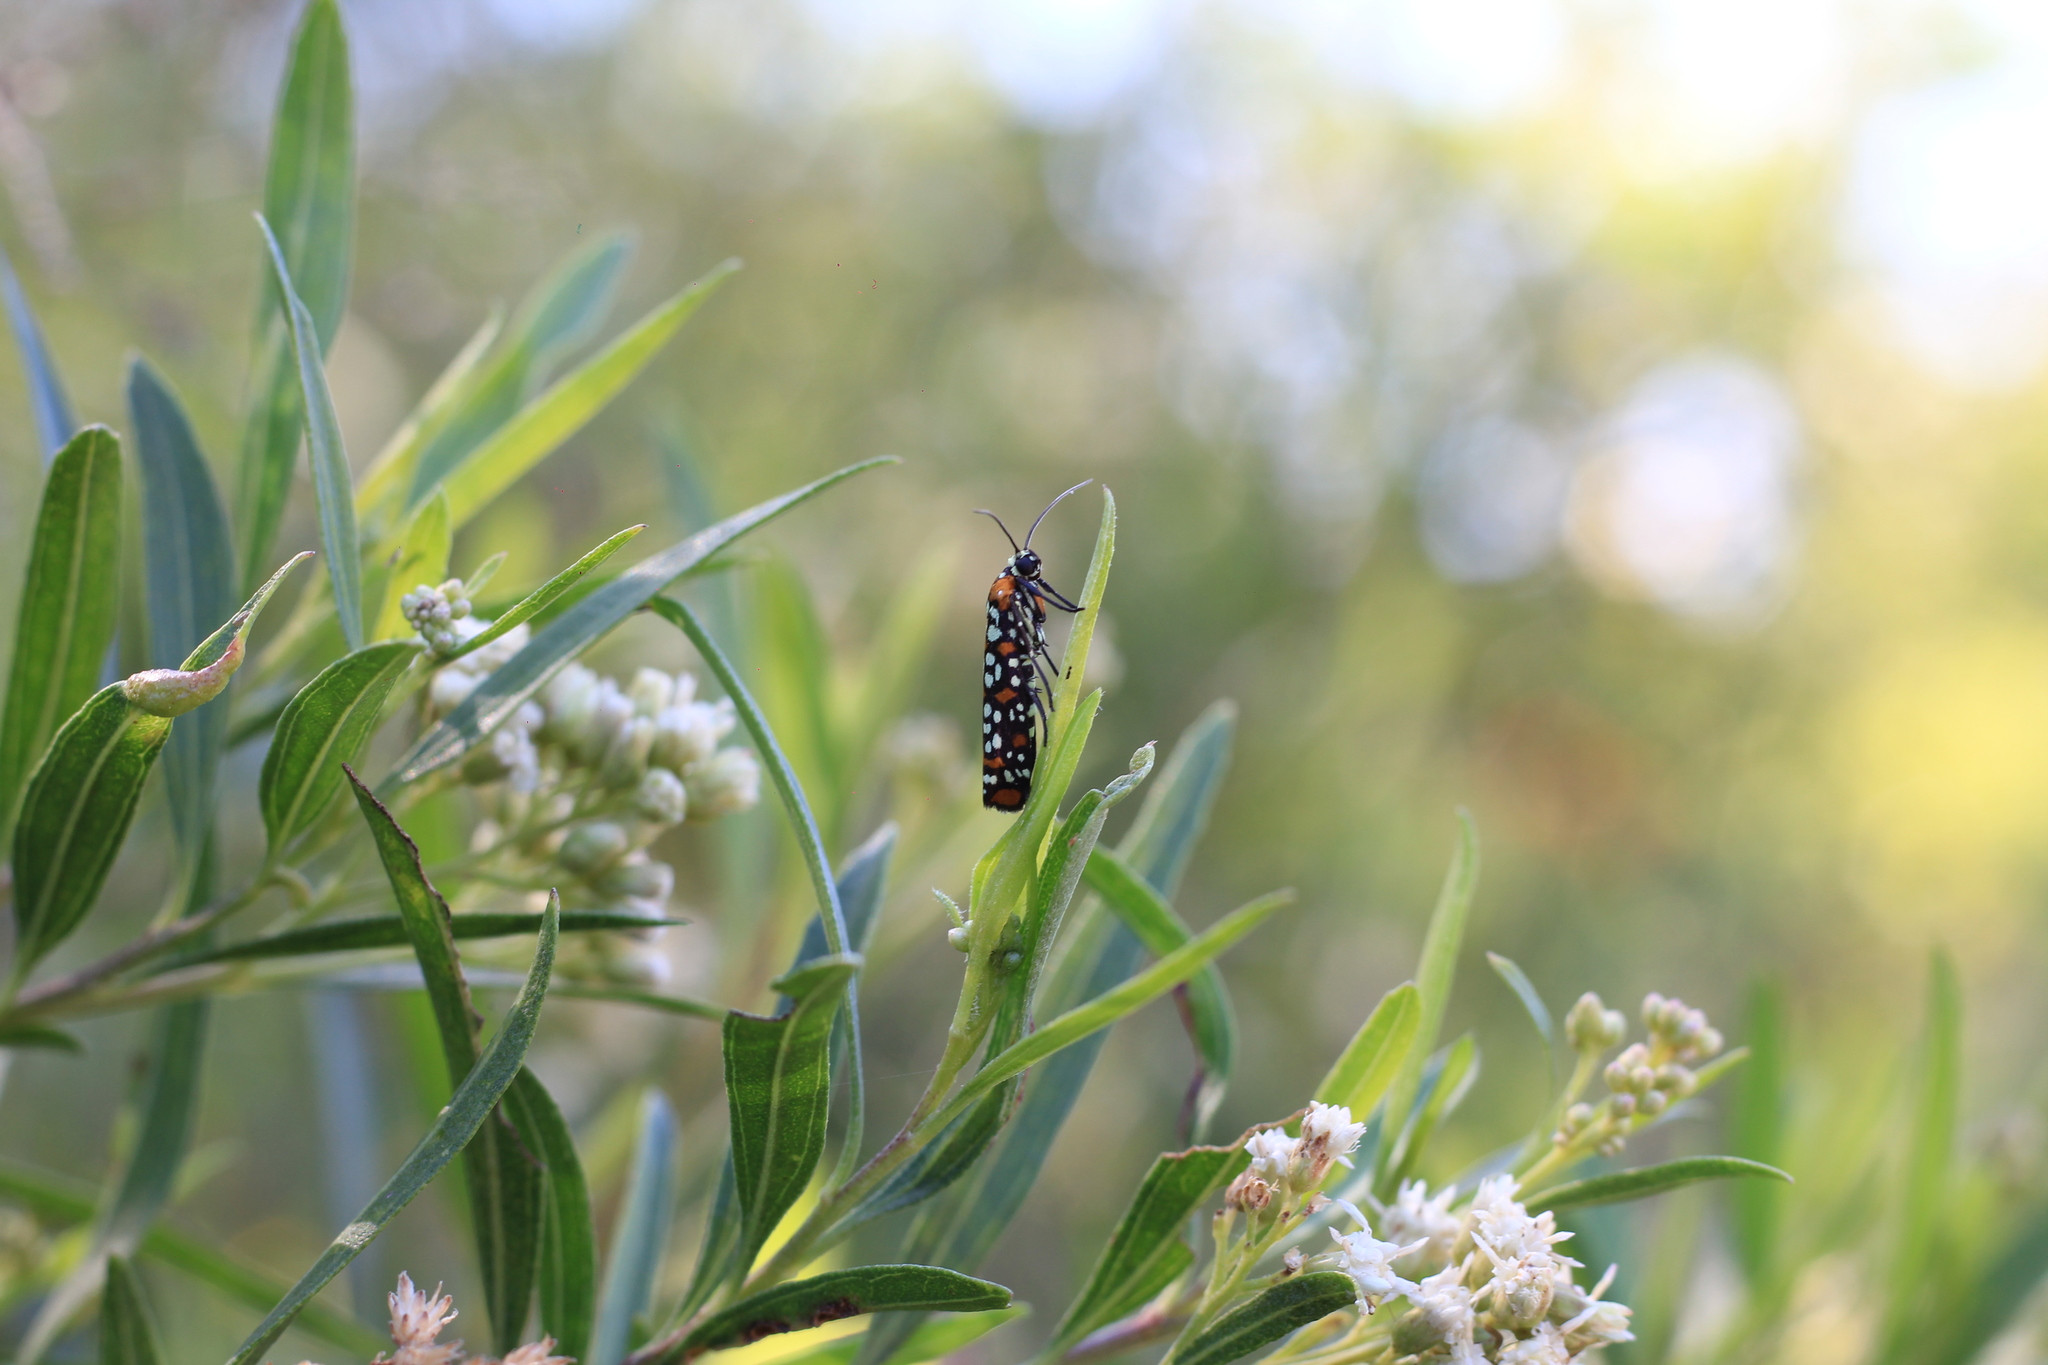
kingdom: Animalia
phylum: Arthropoda
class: Insecta
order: Lepidoptera
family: Attevidae
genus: Atteva
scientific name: Atteva punctella
